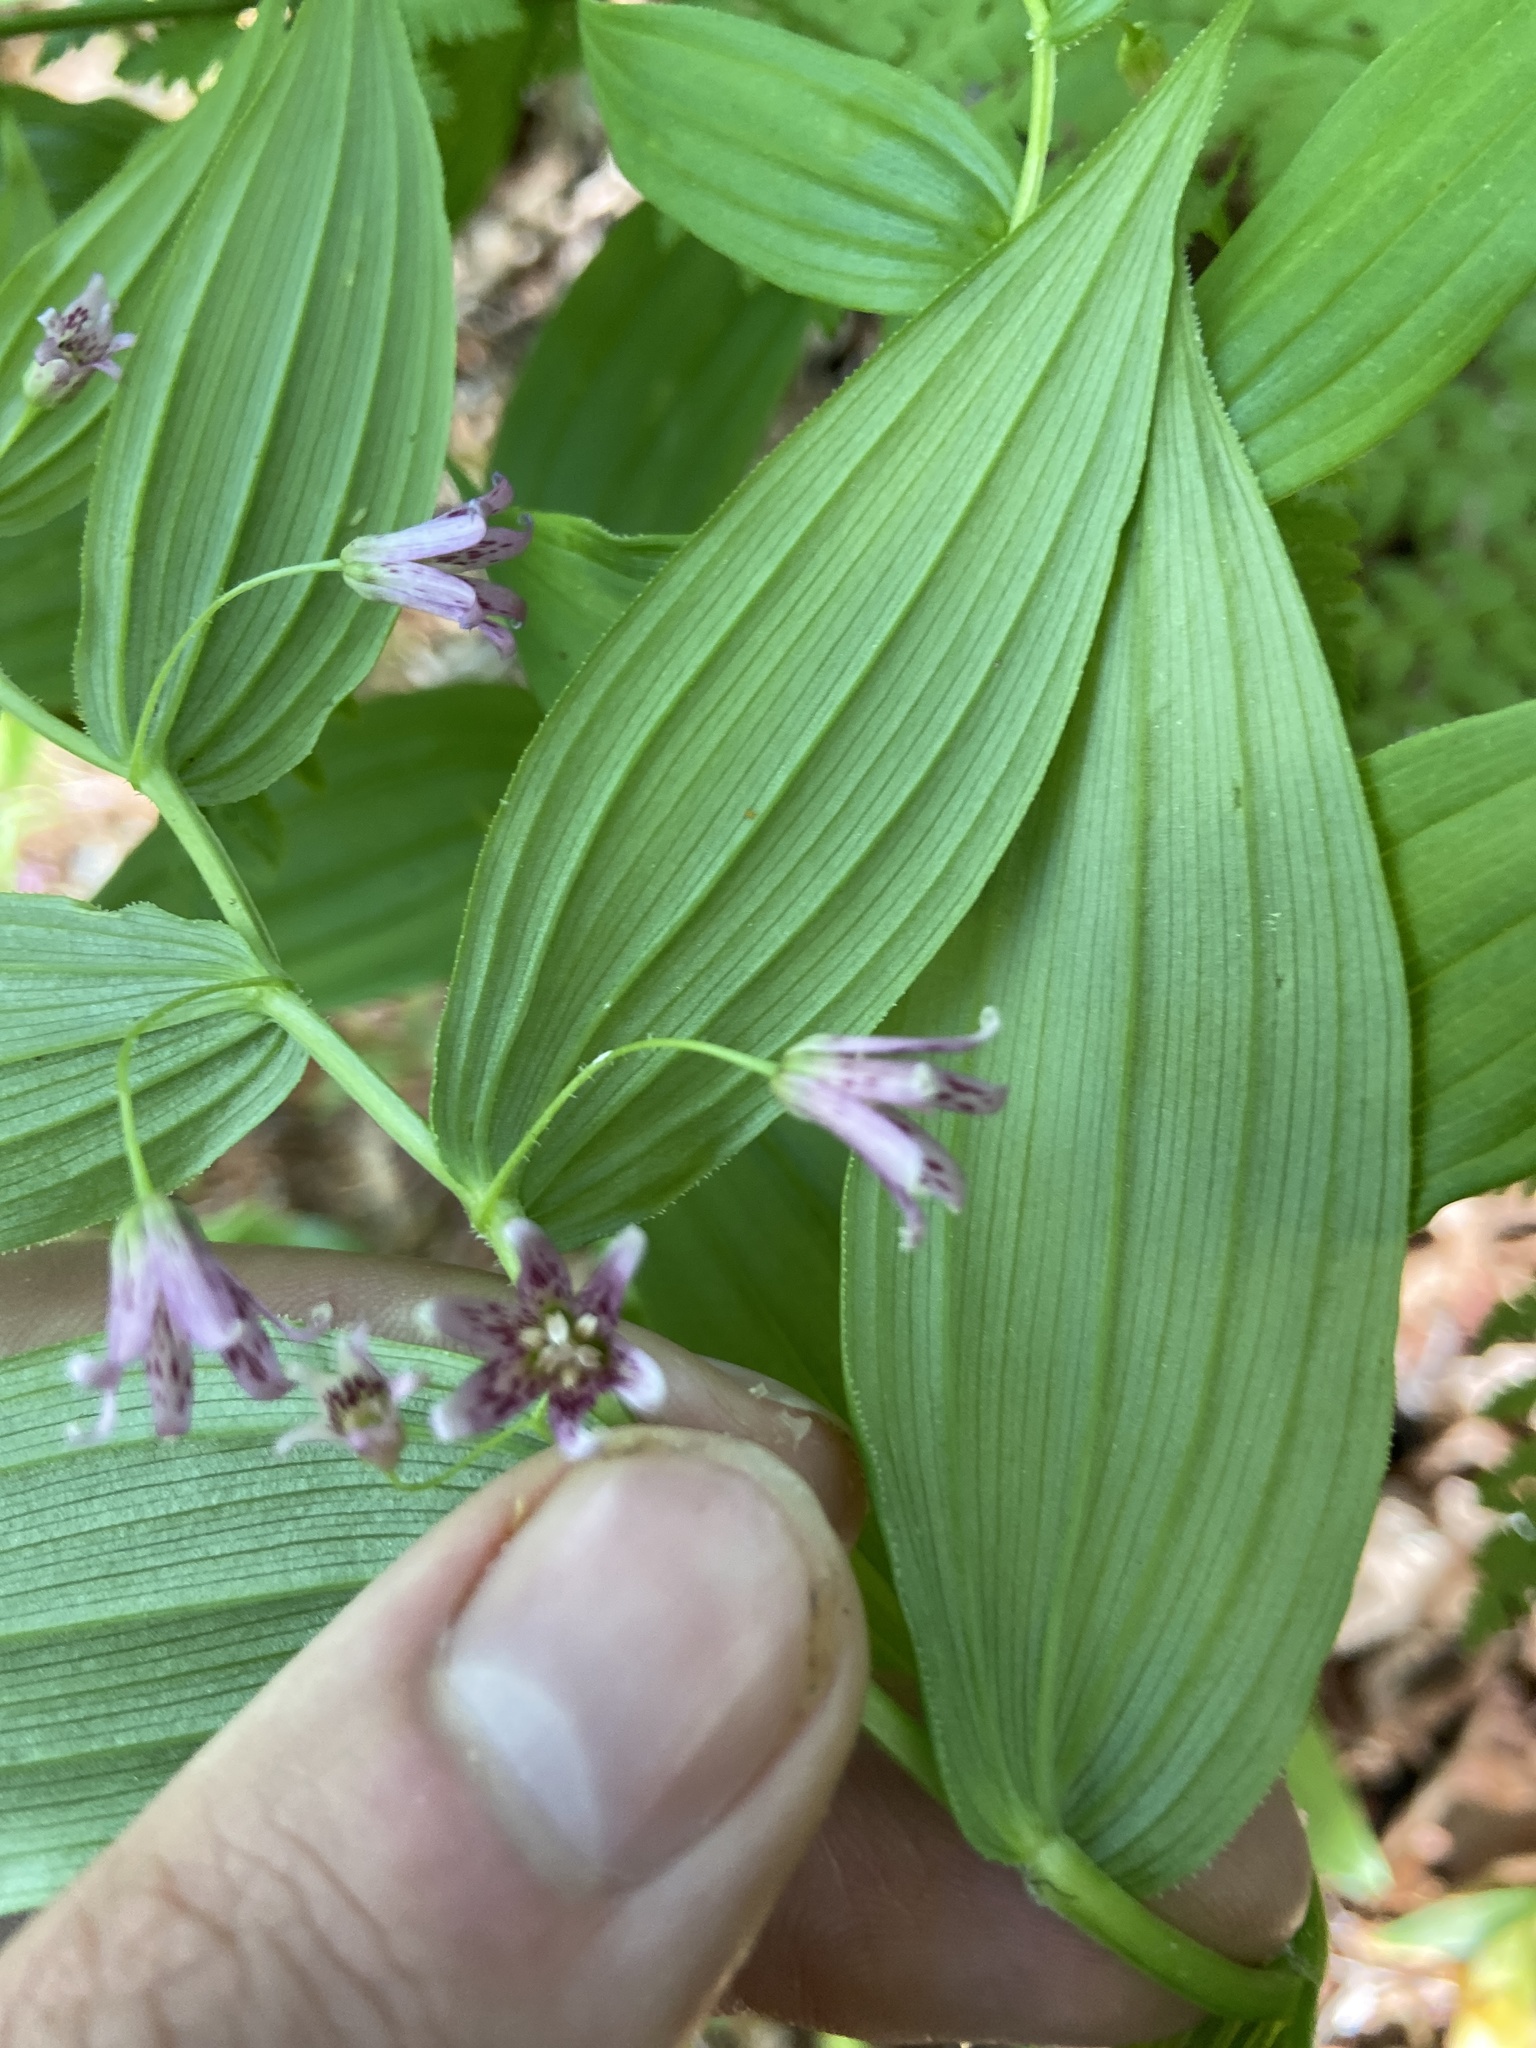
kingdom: Plantae
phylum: Tracheophyta
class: Liliopsida
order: Liliales
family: Liliaceae
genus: Streptopus
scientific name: Streptopus lanceolatus
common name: Rose mandarin
